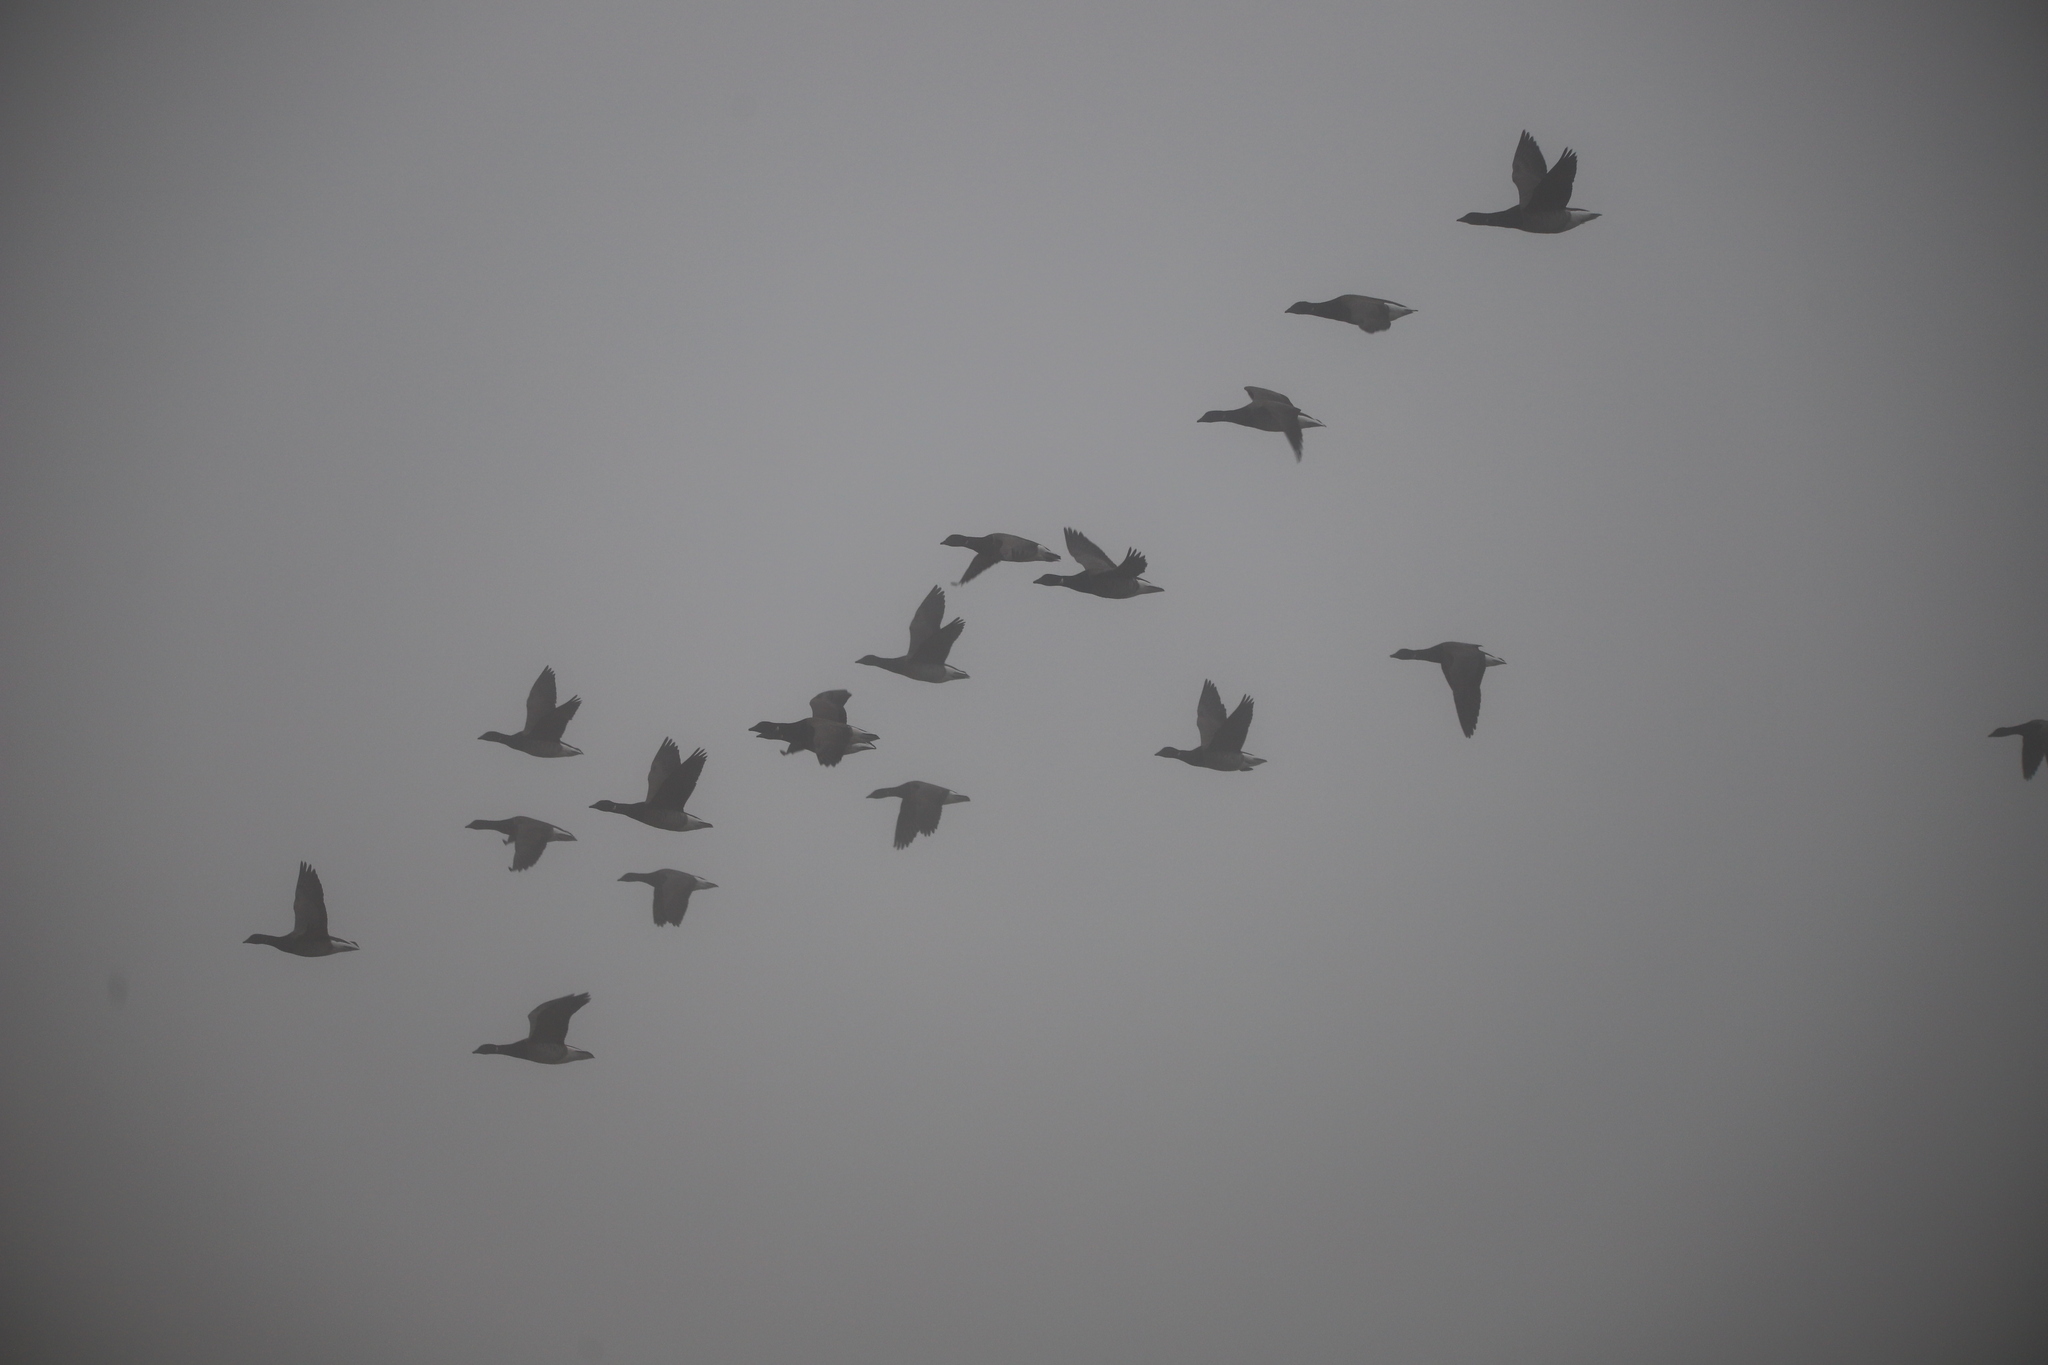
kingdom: Animalia
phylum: Chordata
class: Aves
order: Anseriformes
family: Anatidae
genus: Branta
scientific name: Branta bernicla
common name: Brant goose
